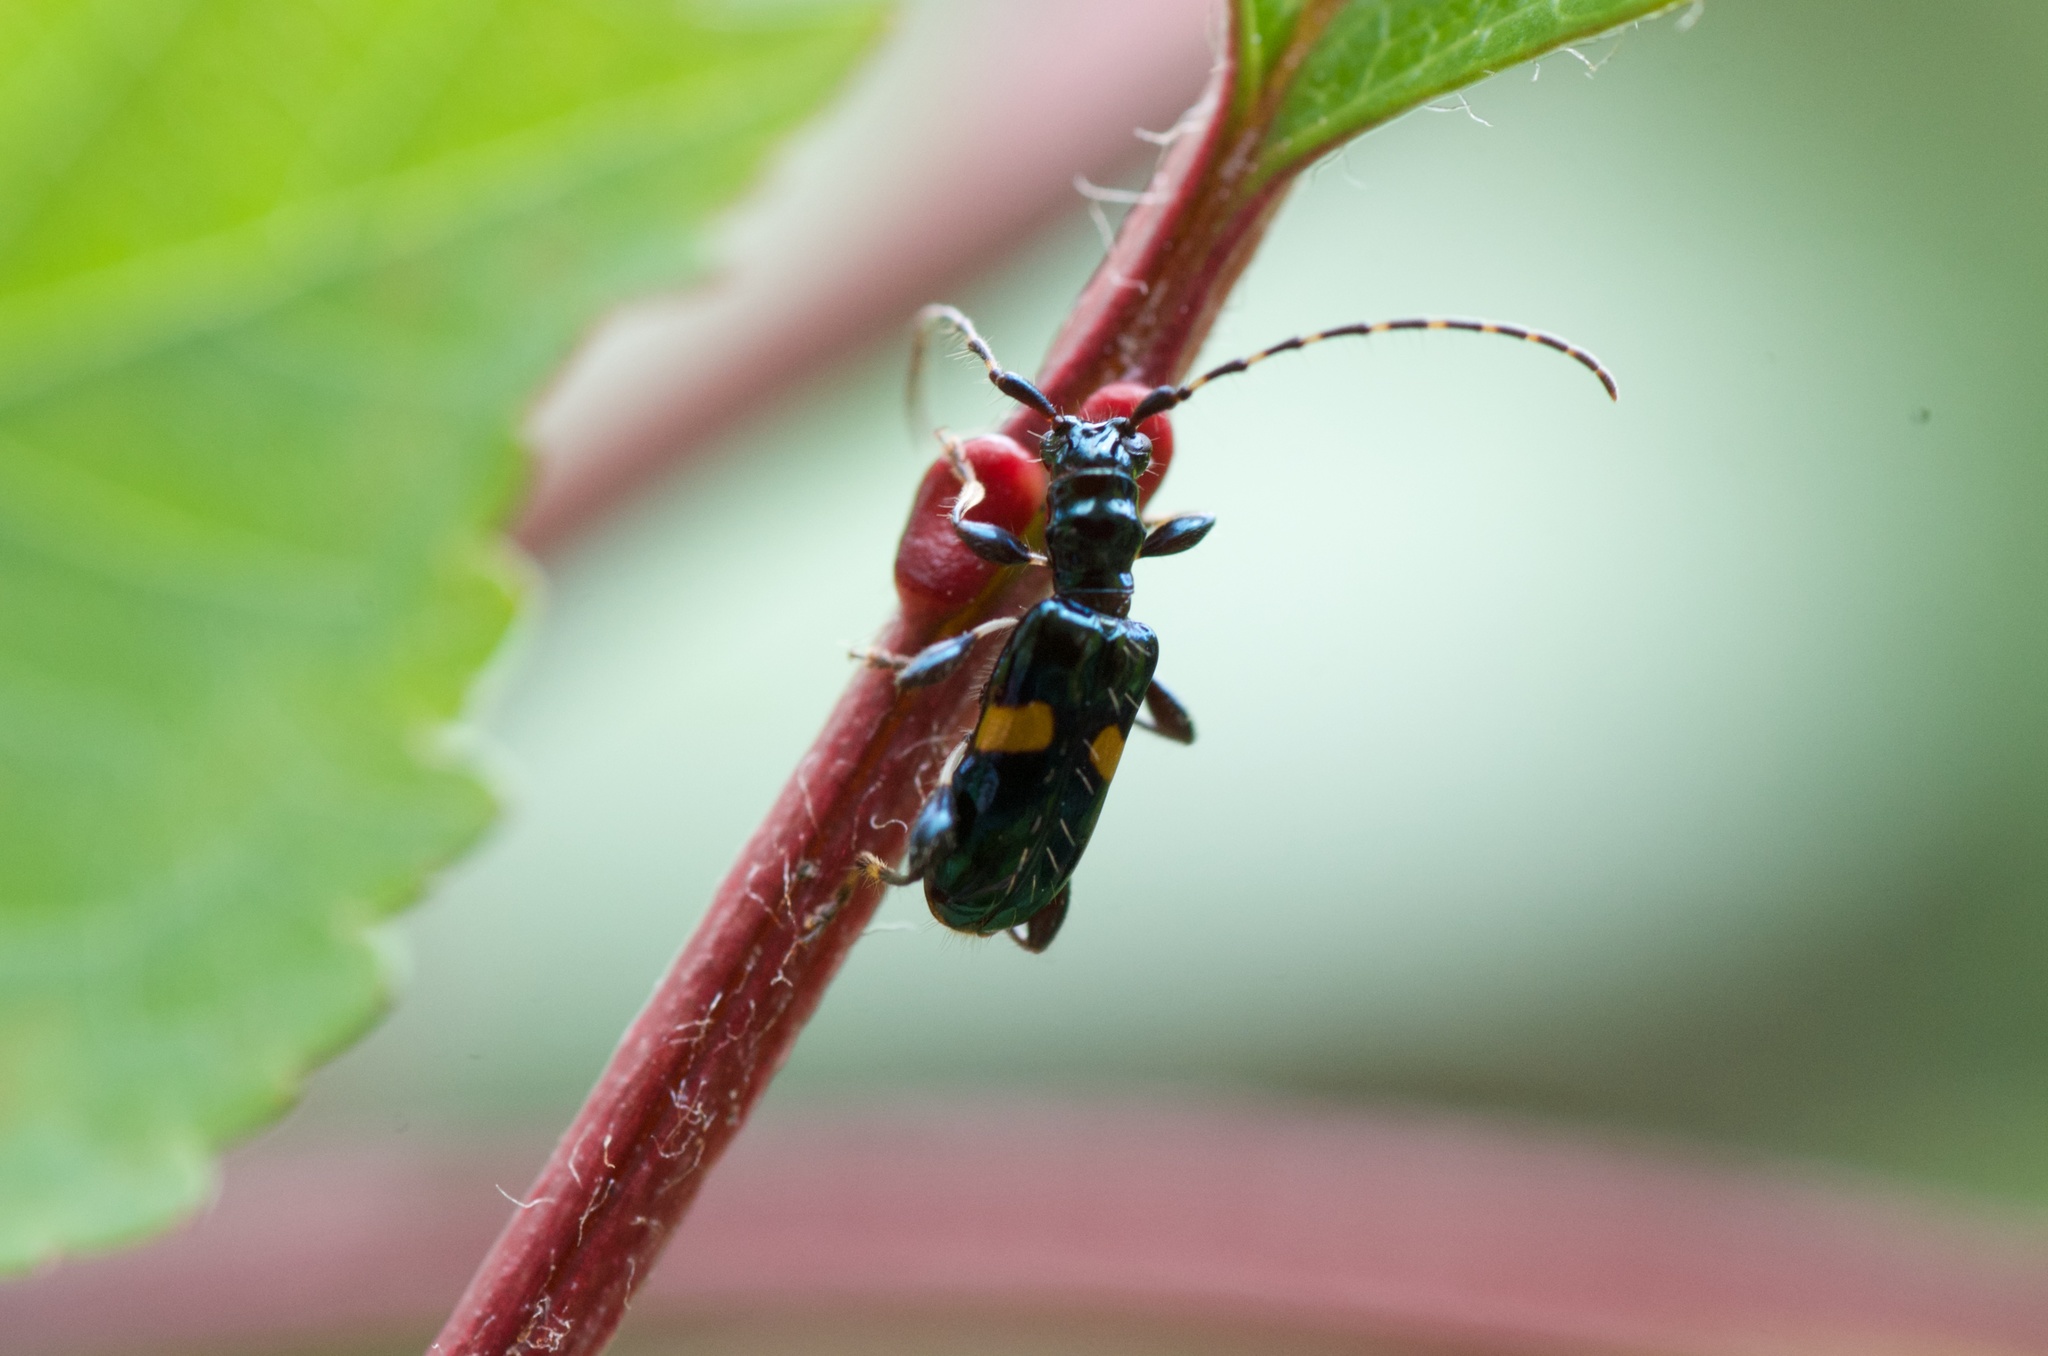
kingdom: Animalia
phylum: Arthropoda
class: Insecta
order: Coleoptera
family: Cerambycidae
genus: Zorion
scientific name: Zorion guttigerum
